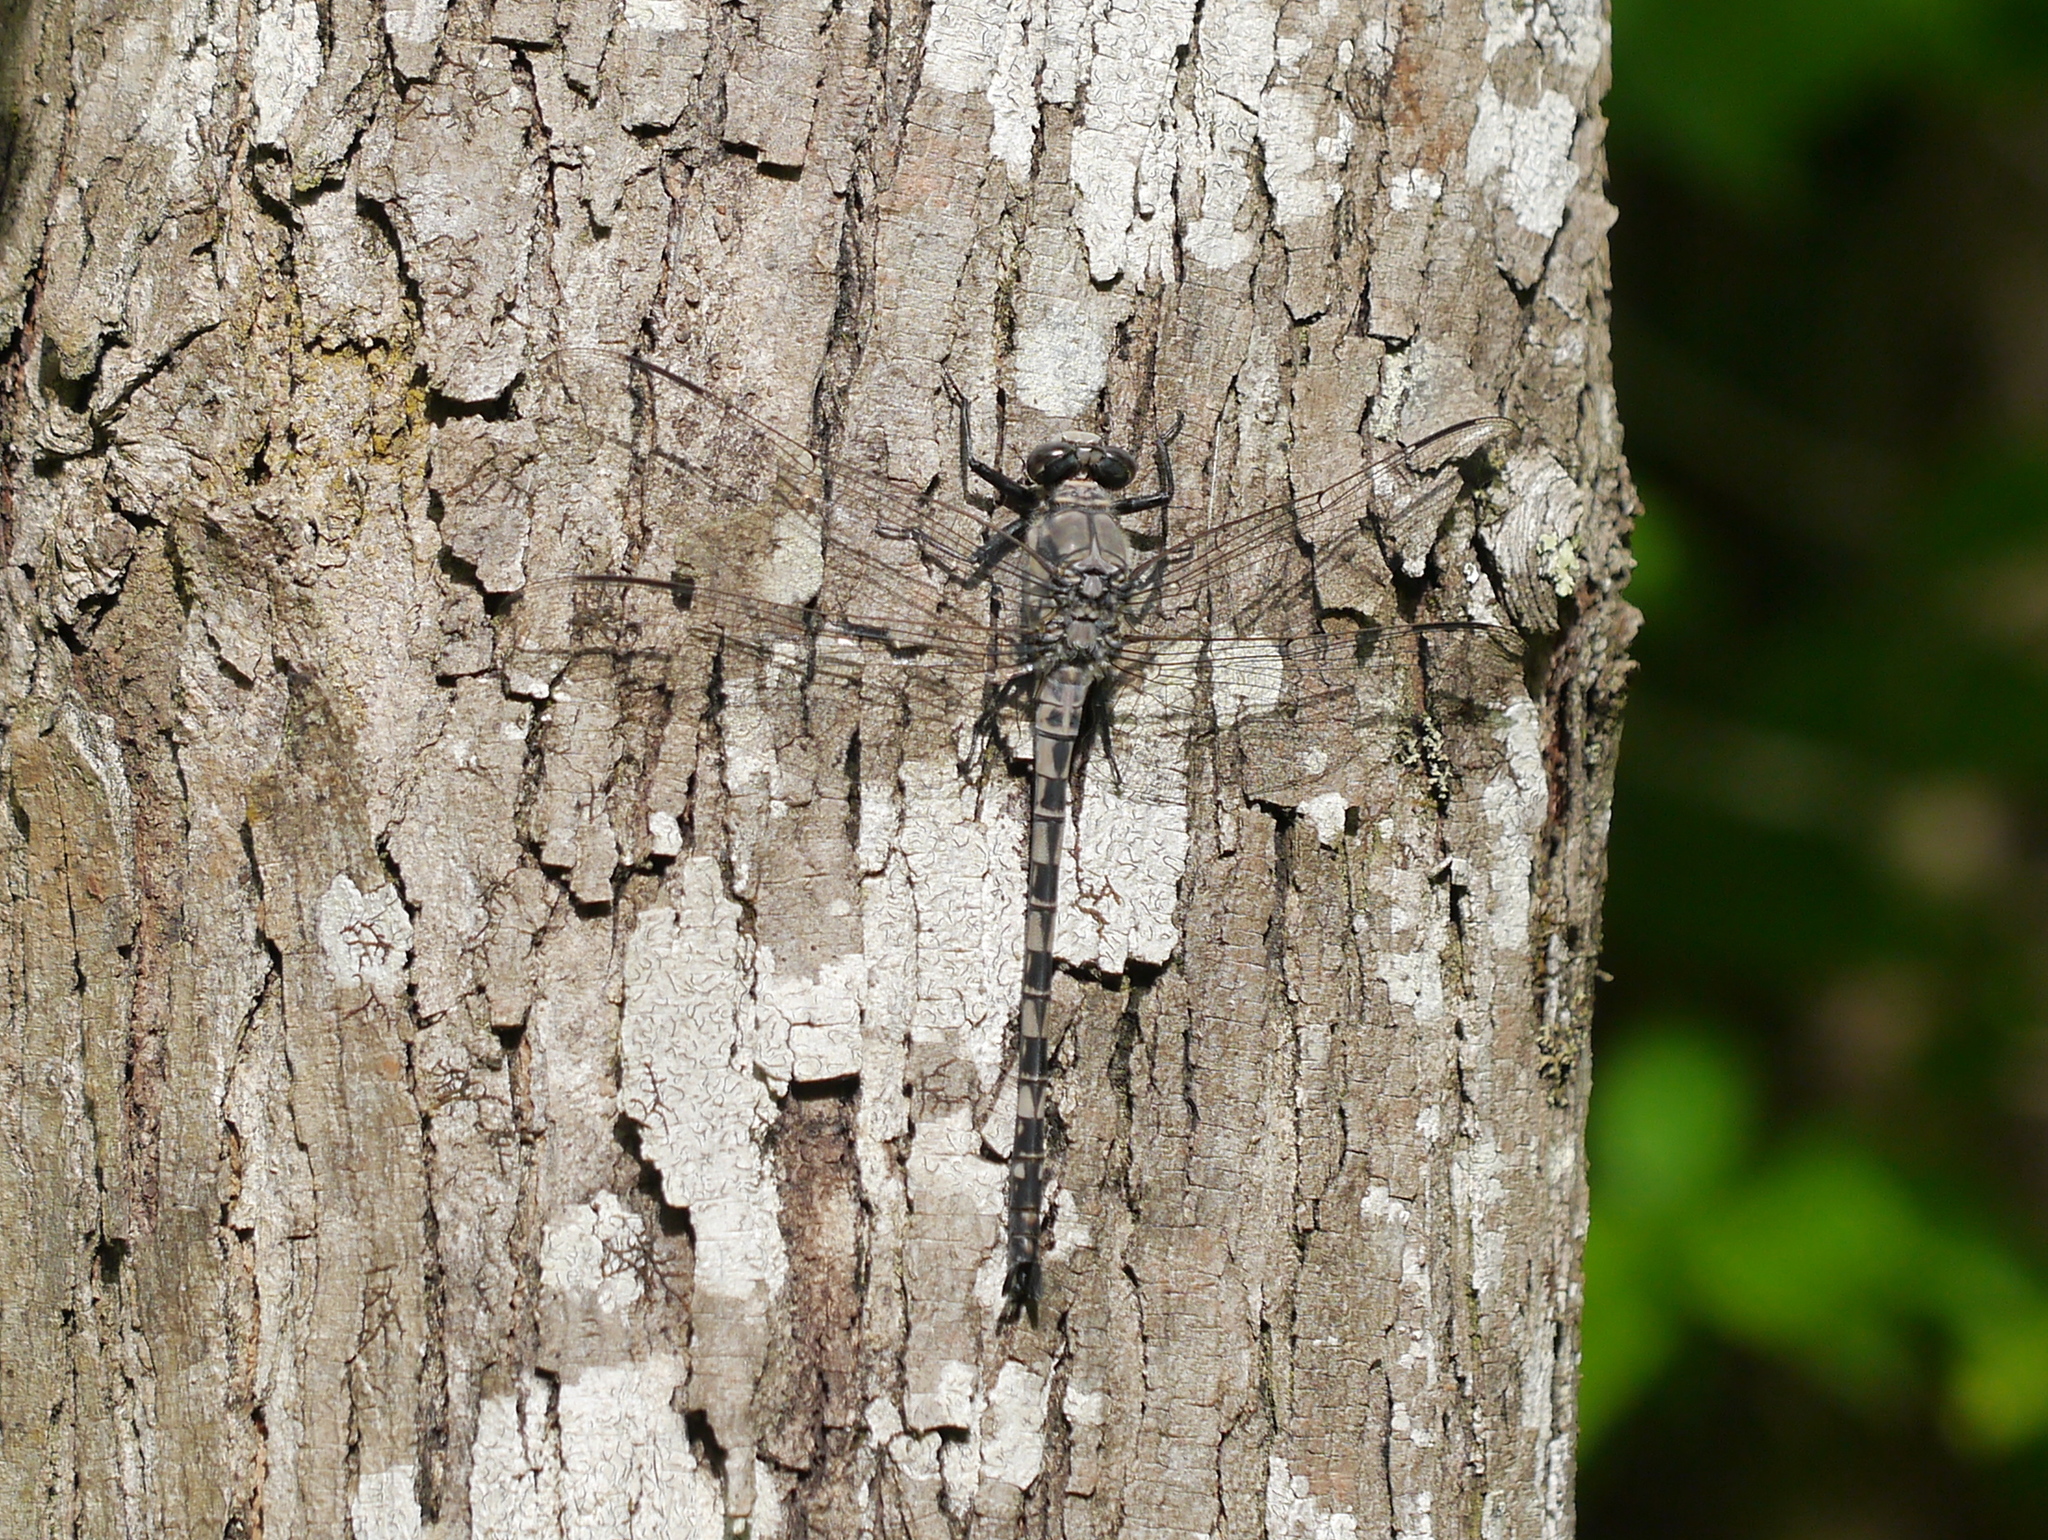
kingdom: Animalia
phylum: Arthropoda
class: Insecta
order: Odonata
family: Petaluridae
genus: Tachopteryx
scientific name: Tachopteryx thoreyi
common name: Gray petaltail
